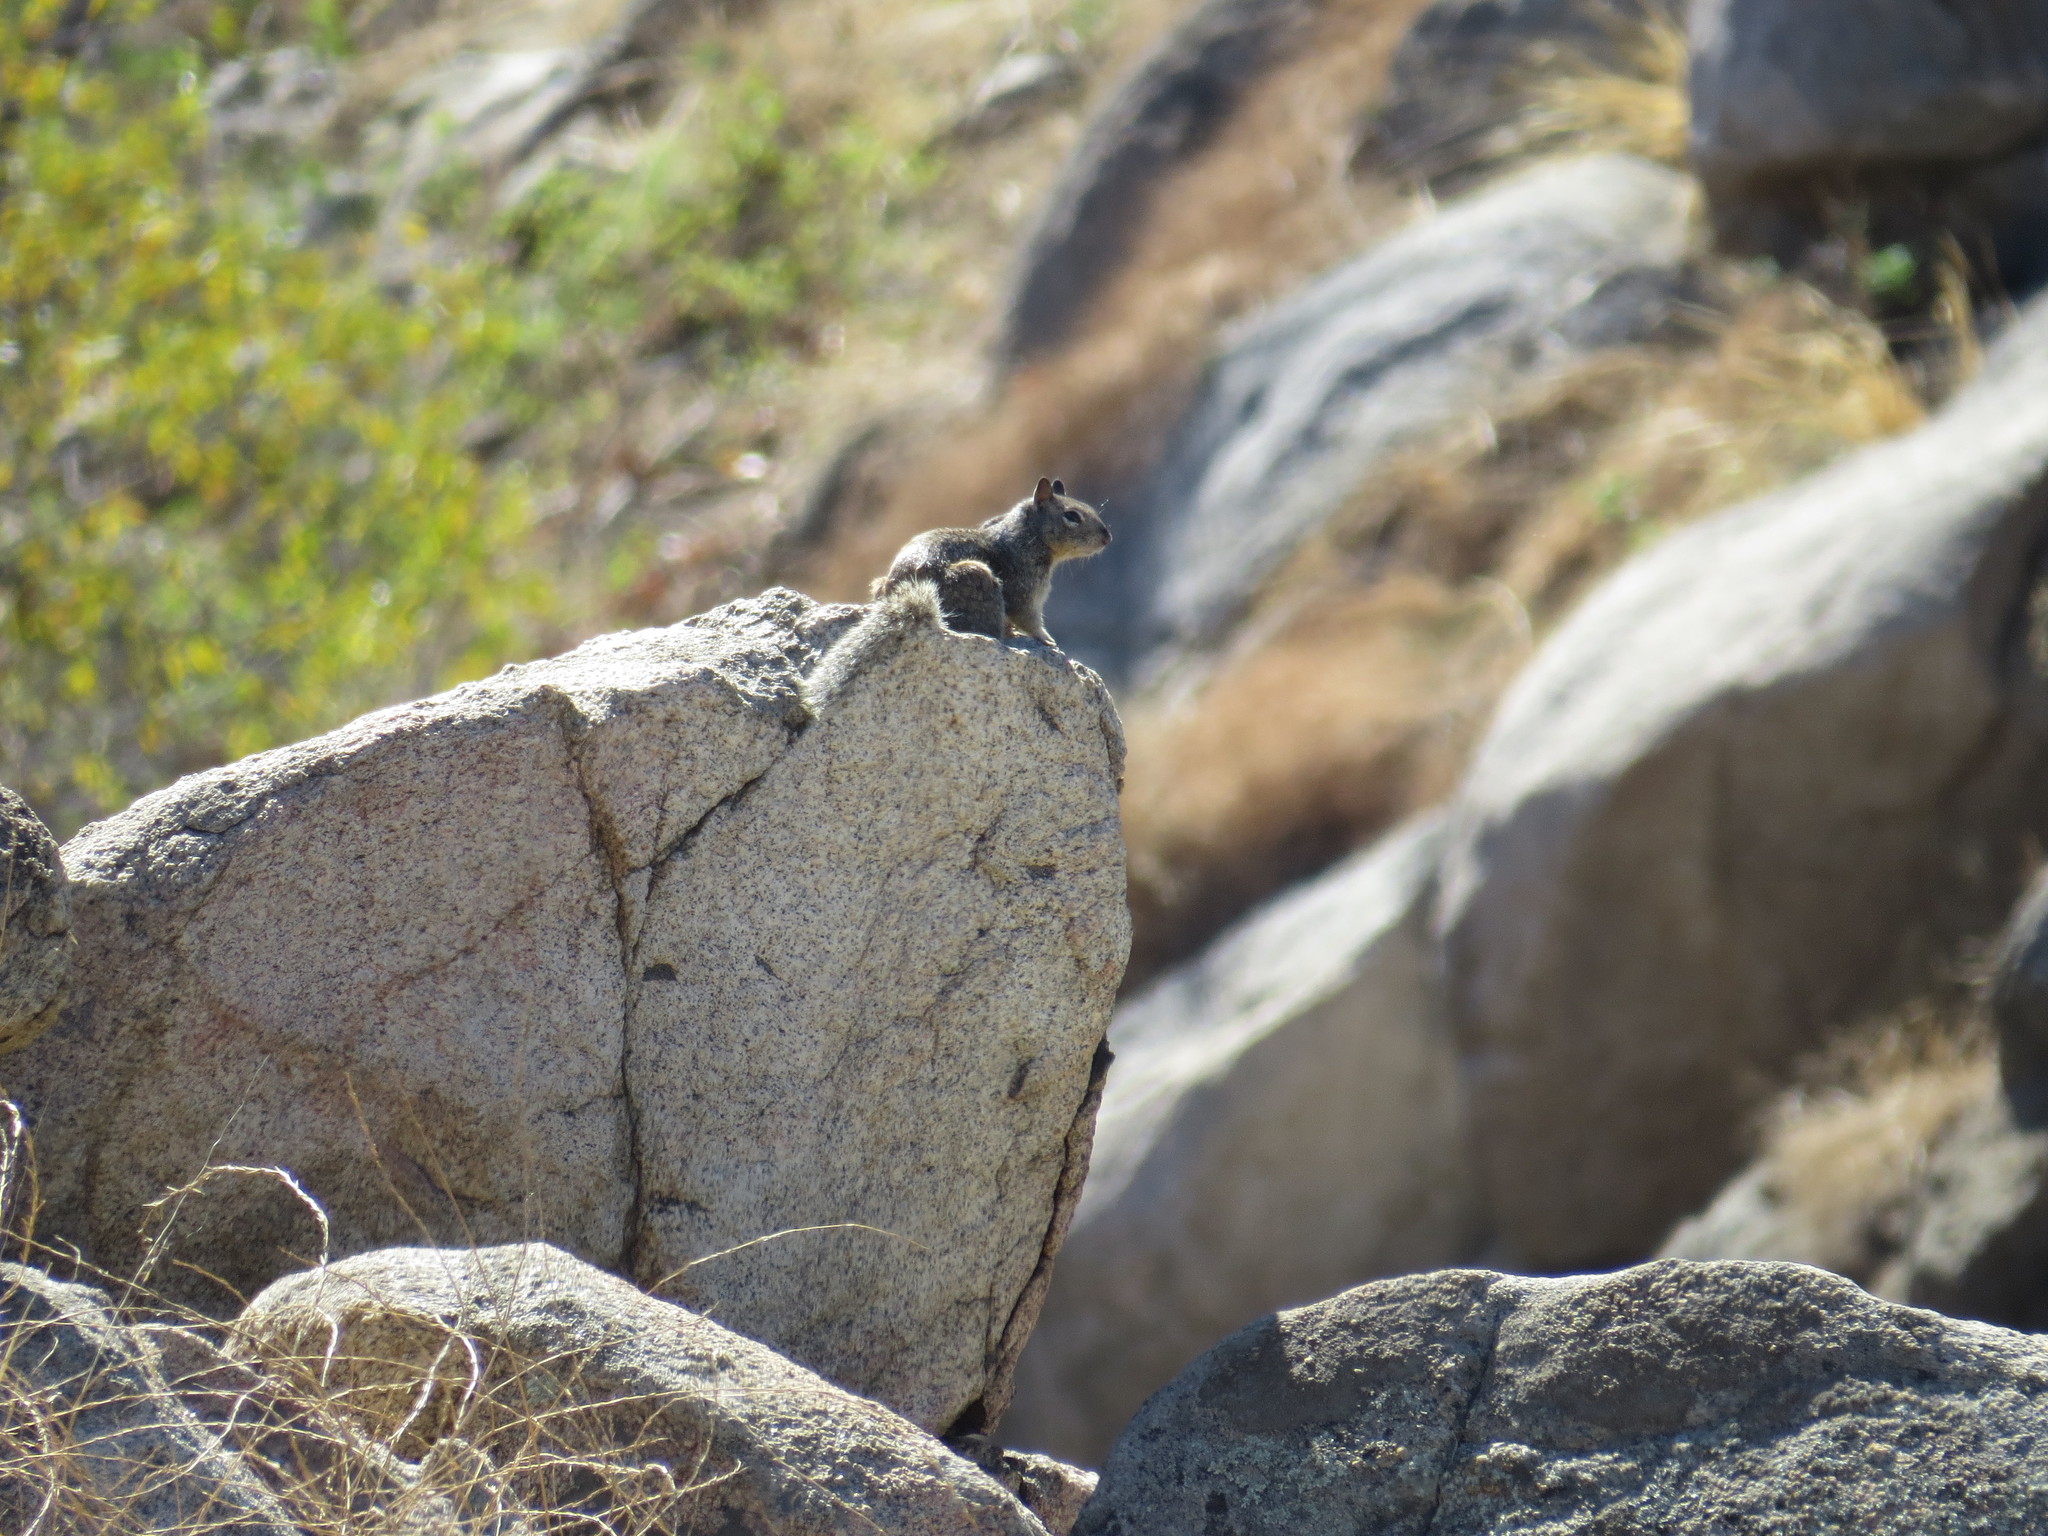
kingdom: Animalia
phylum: Chordata
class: Mammalia
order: Rodentia
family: Sciuridae
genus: Otospermophilus
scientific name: Otospermophilus beecheyi
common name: California ground squirrel
